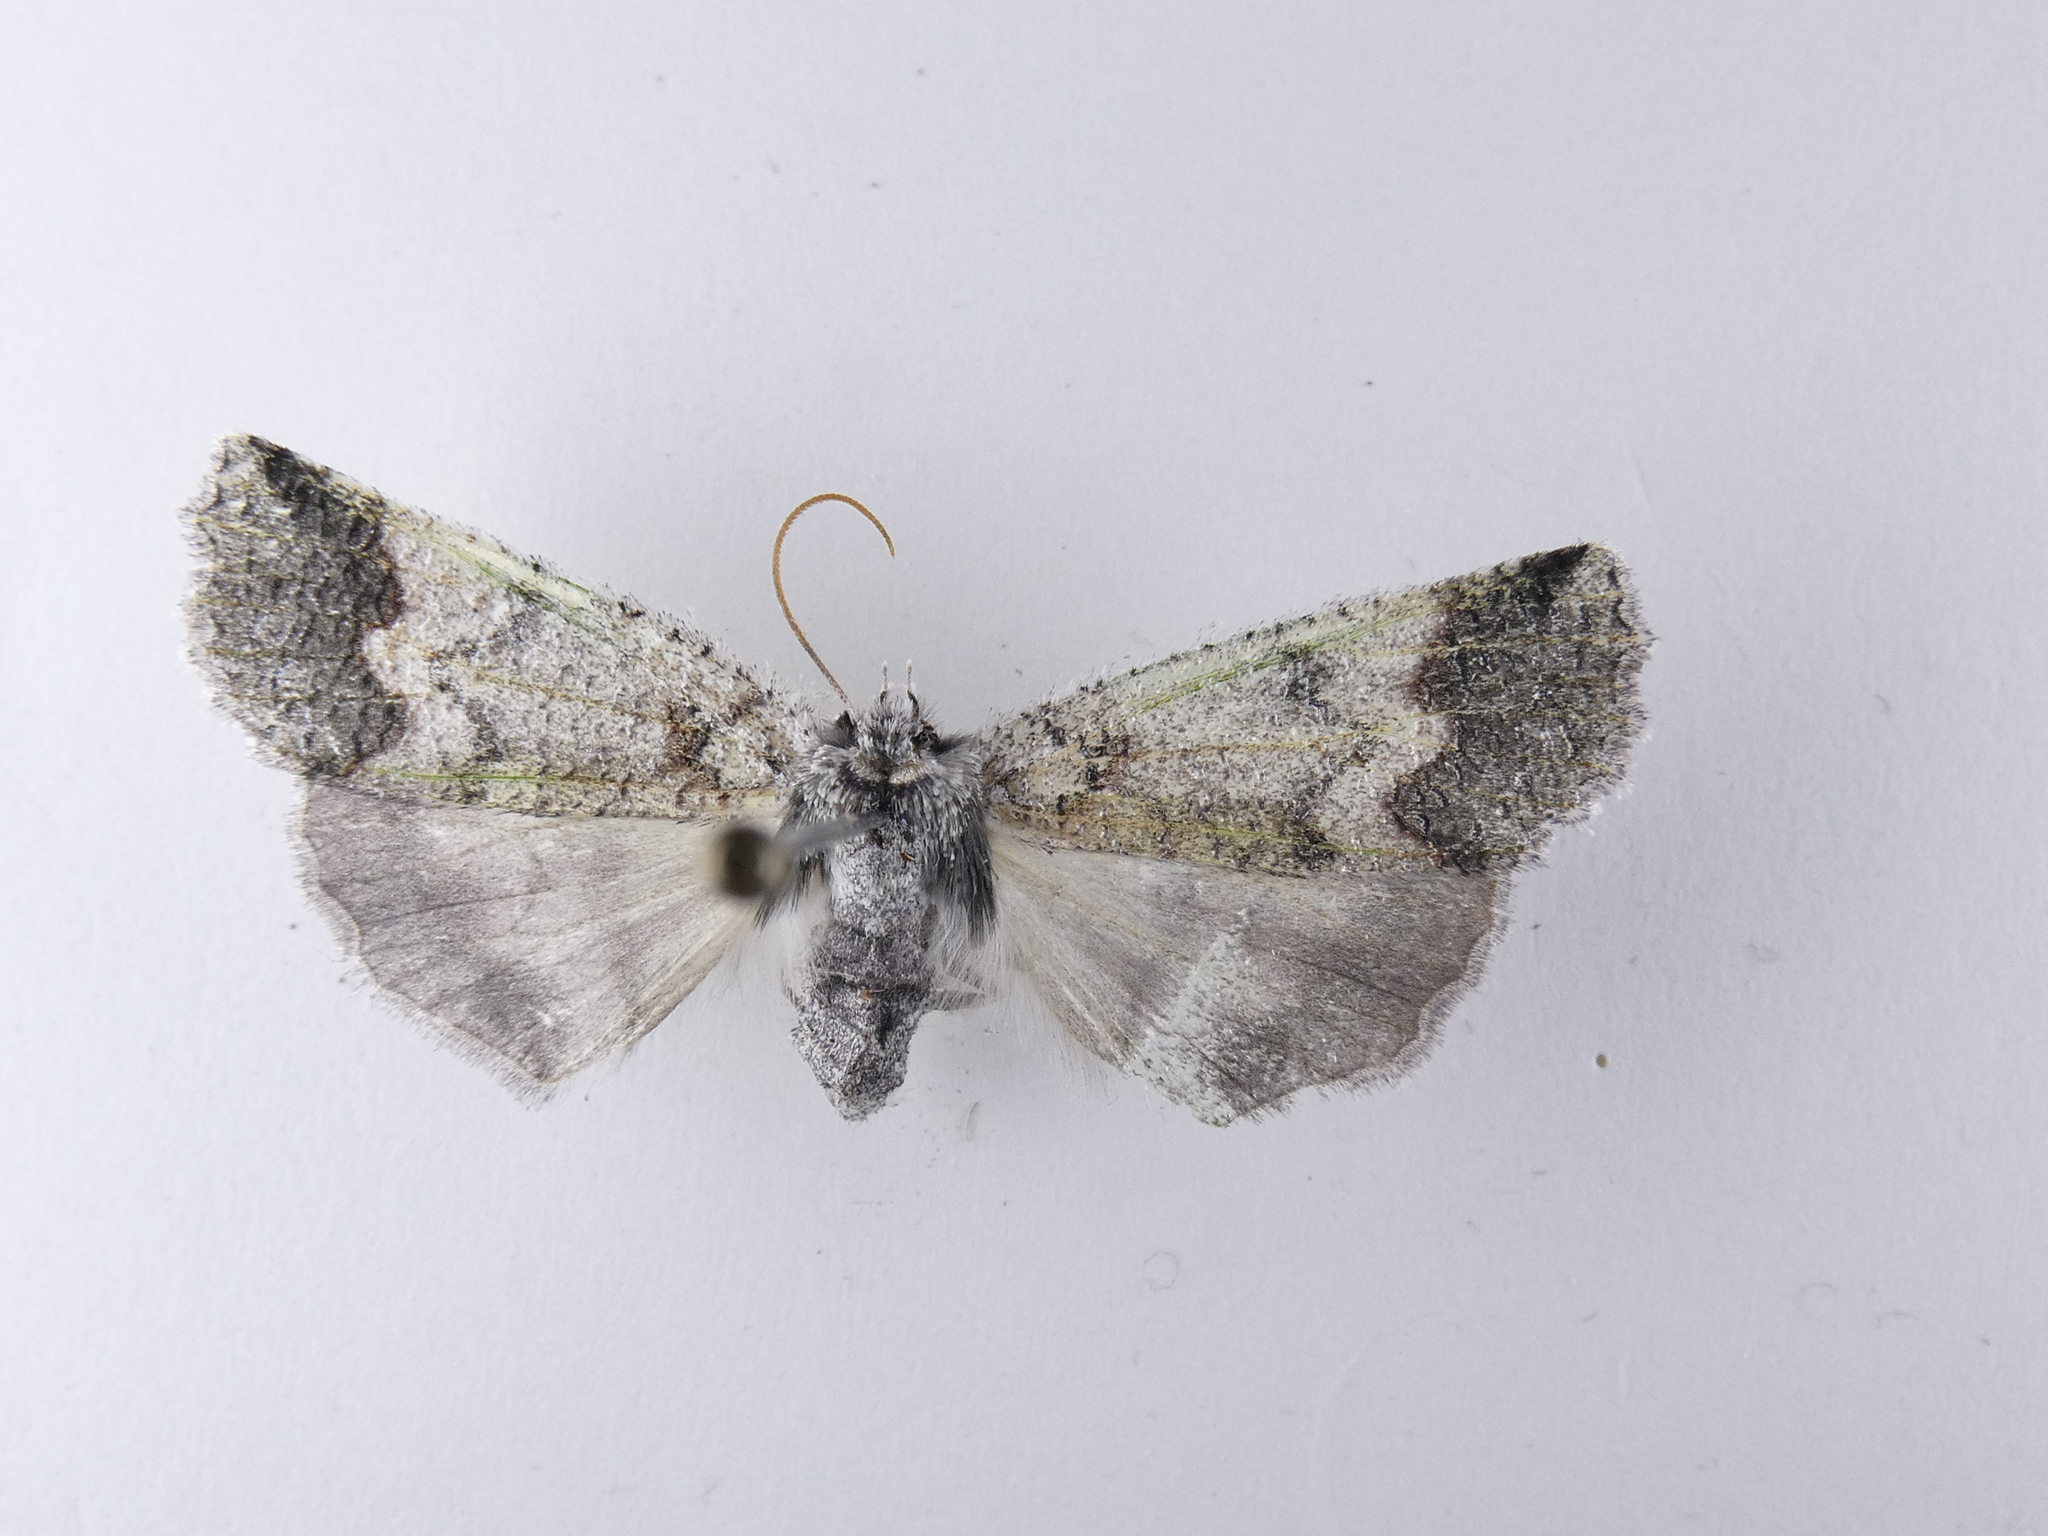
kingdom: Animalia
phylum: Arthropoda
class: Insecta
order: Lepidoptera
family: Geometridae
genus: Declana
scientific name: Declana floccosa
